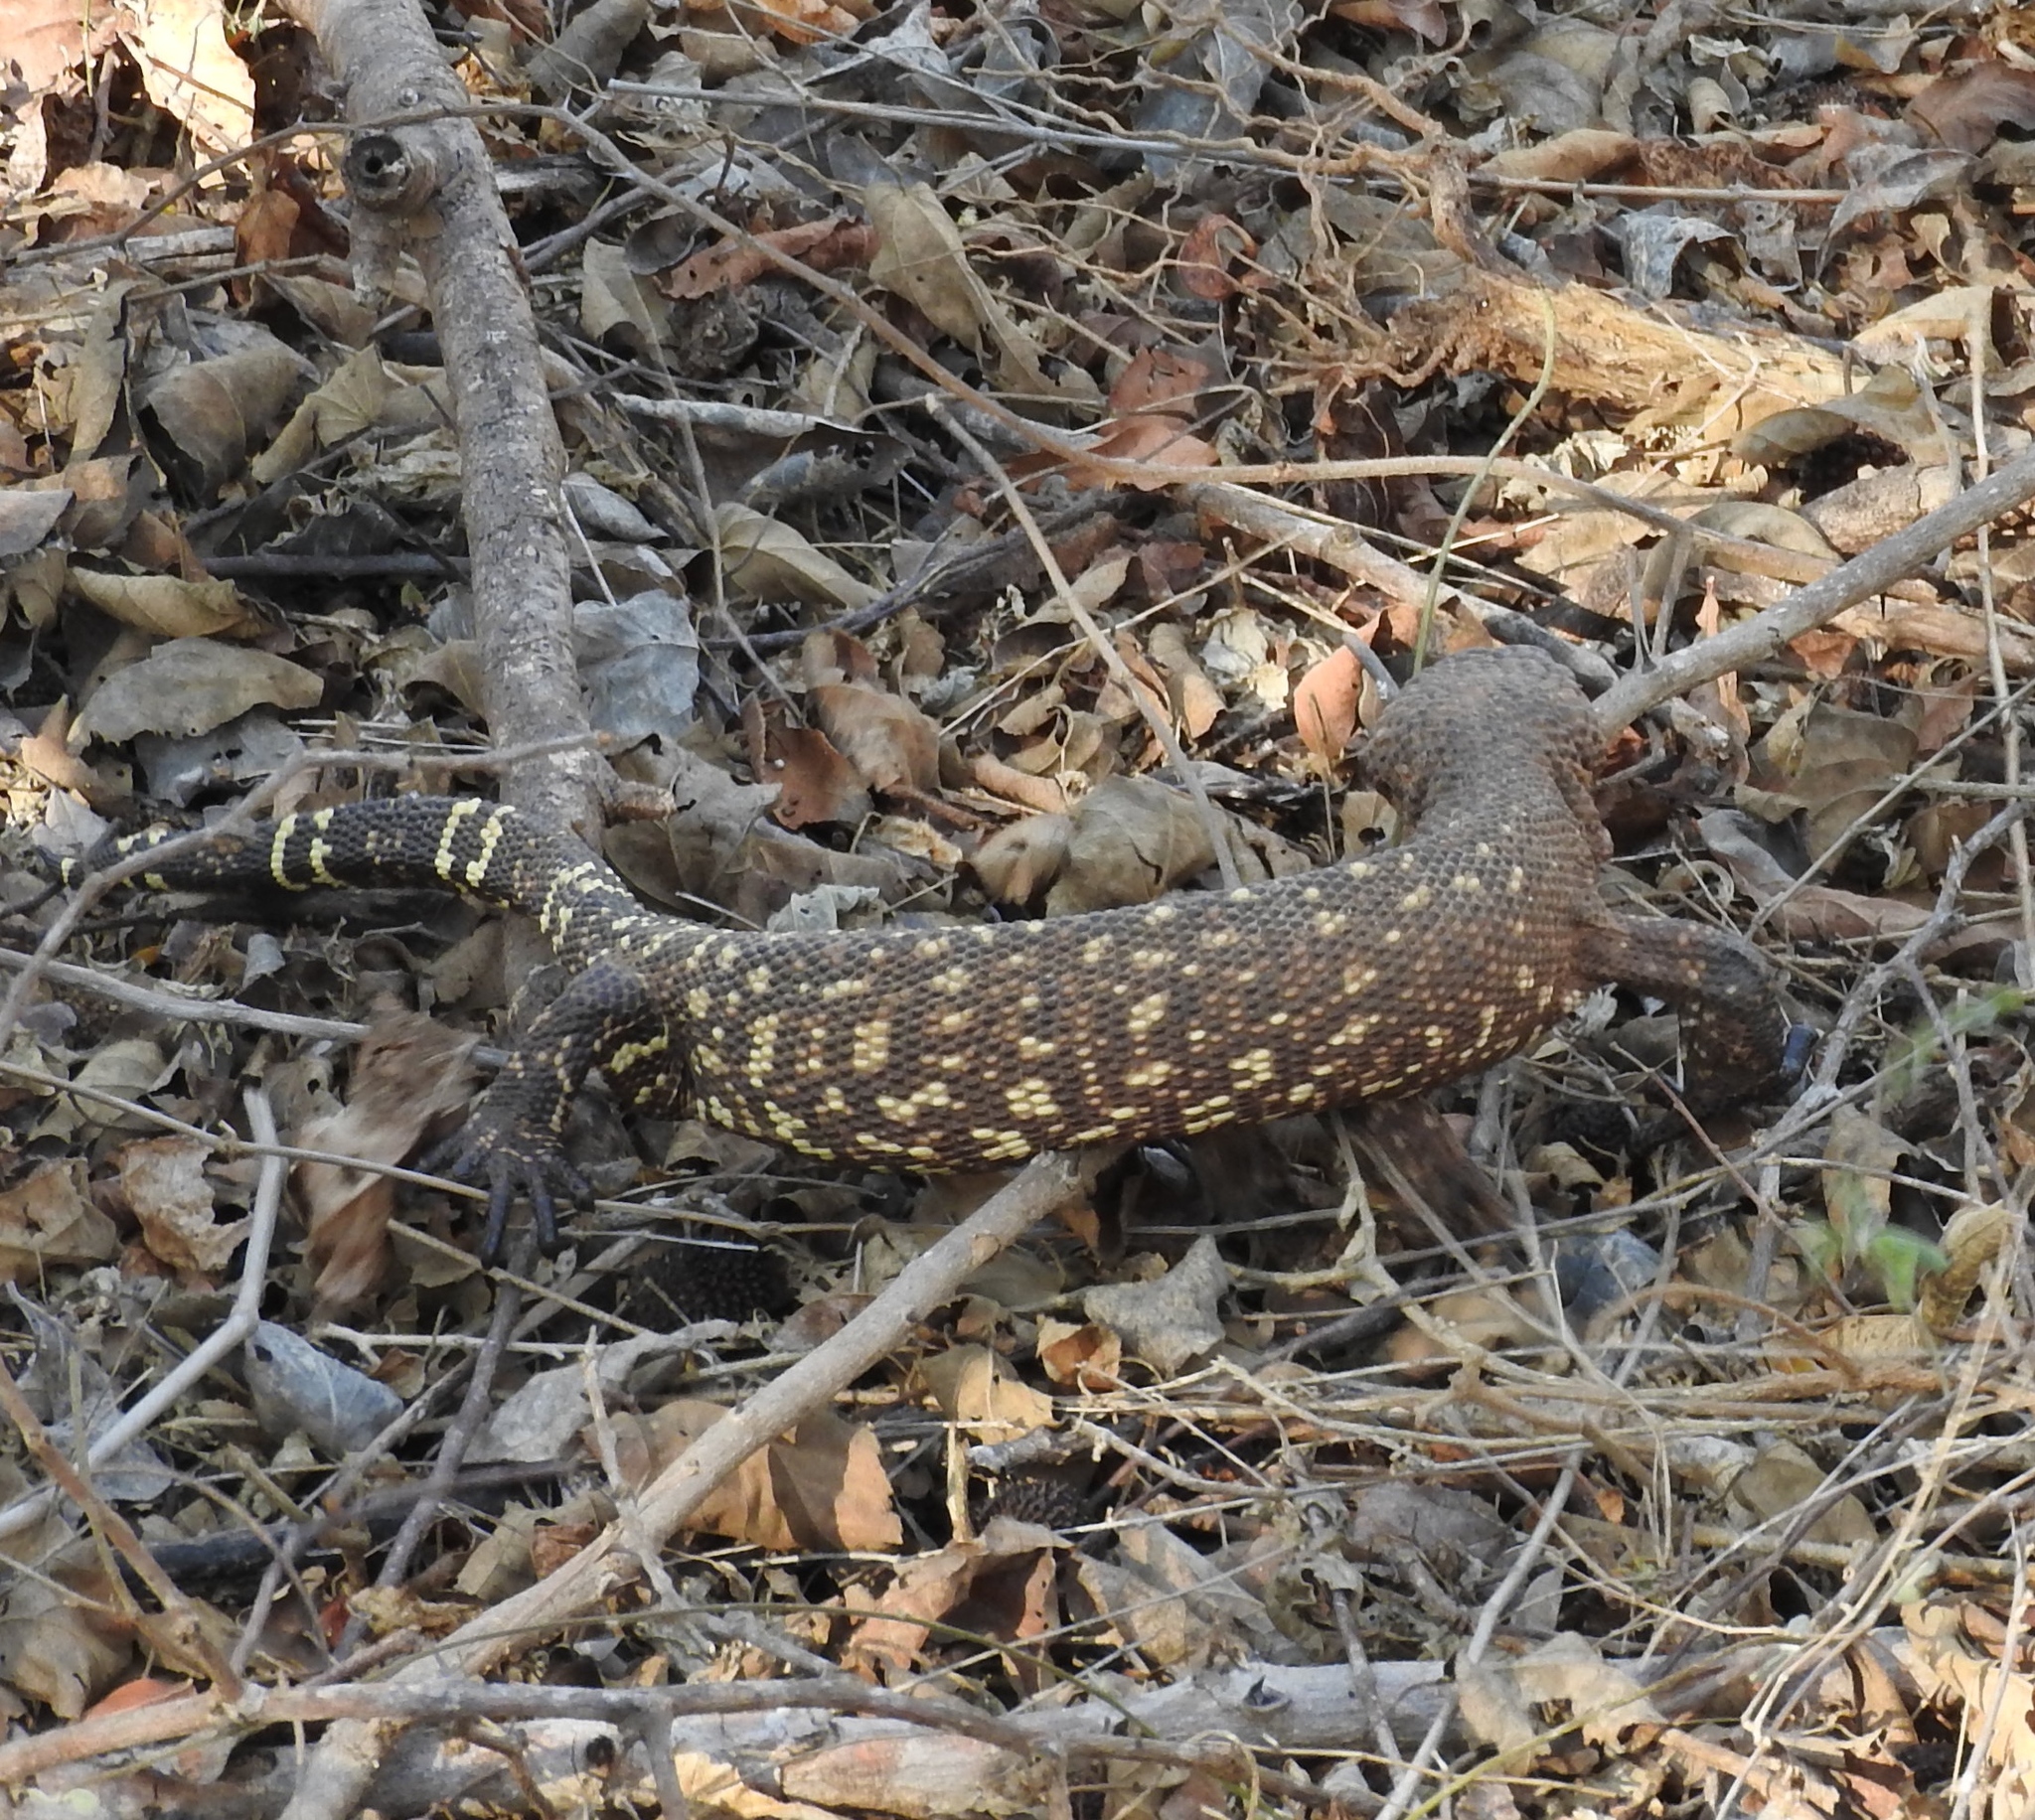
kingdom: Animalia
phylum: Chordata
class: Squamata
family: Helodermatidae
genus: Heloderma
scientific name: Heloderma horridum
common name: Mexican beaded lizard
